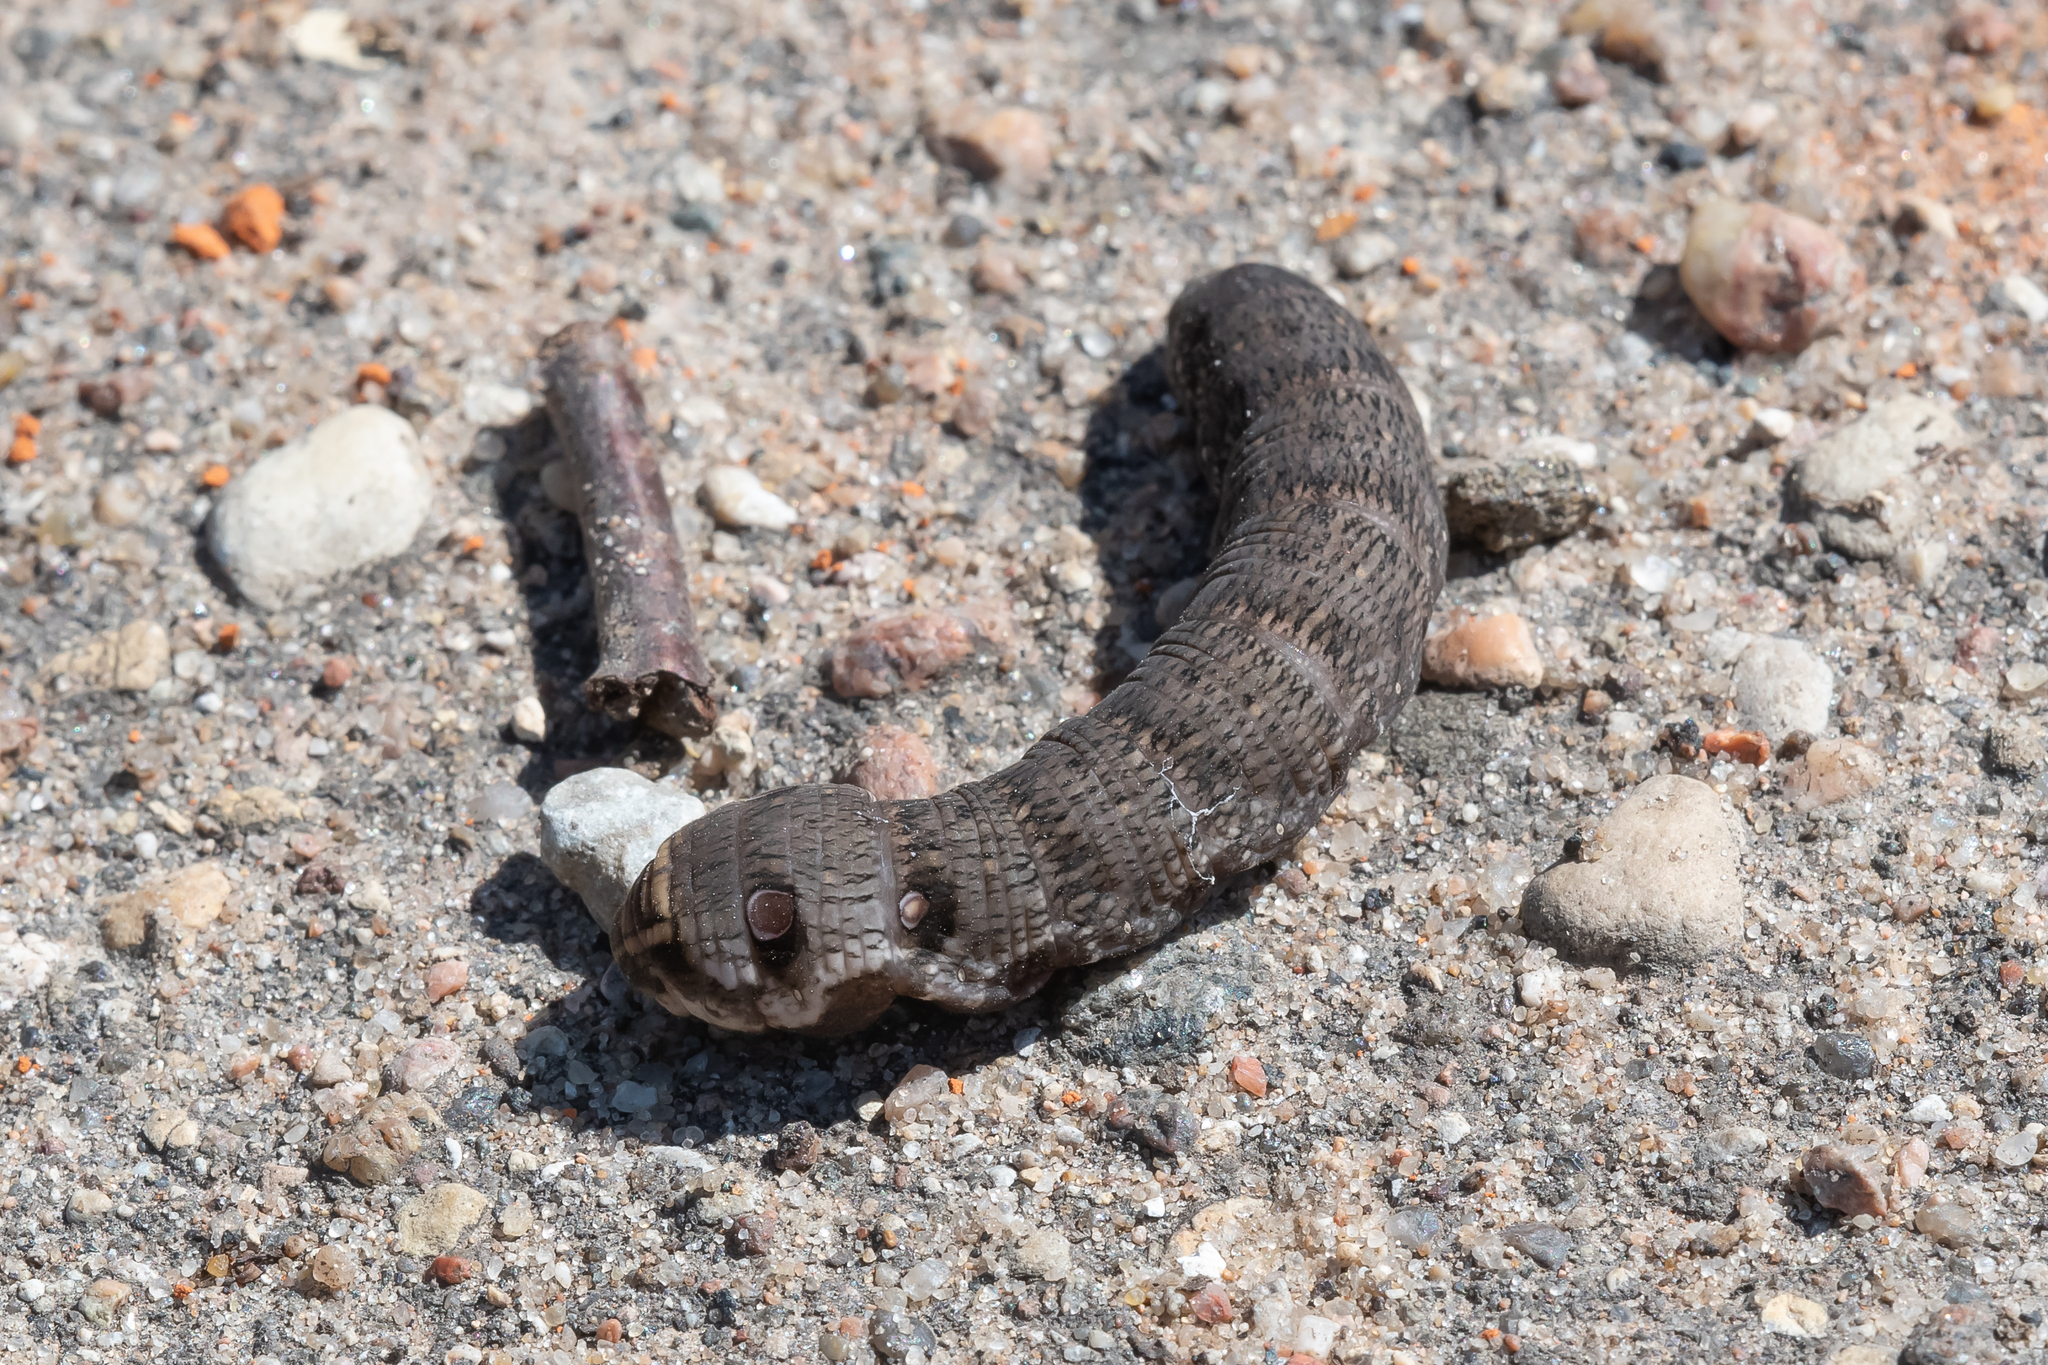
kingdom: Animalia
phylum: Arthropoda
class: Insecta
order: Lepidoptera
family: Sphingidae
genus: Deilephila
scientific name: Deilephila porcellus
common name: Small elephant hawk-moth
